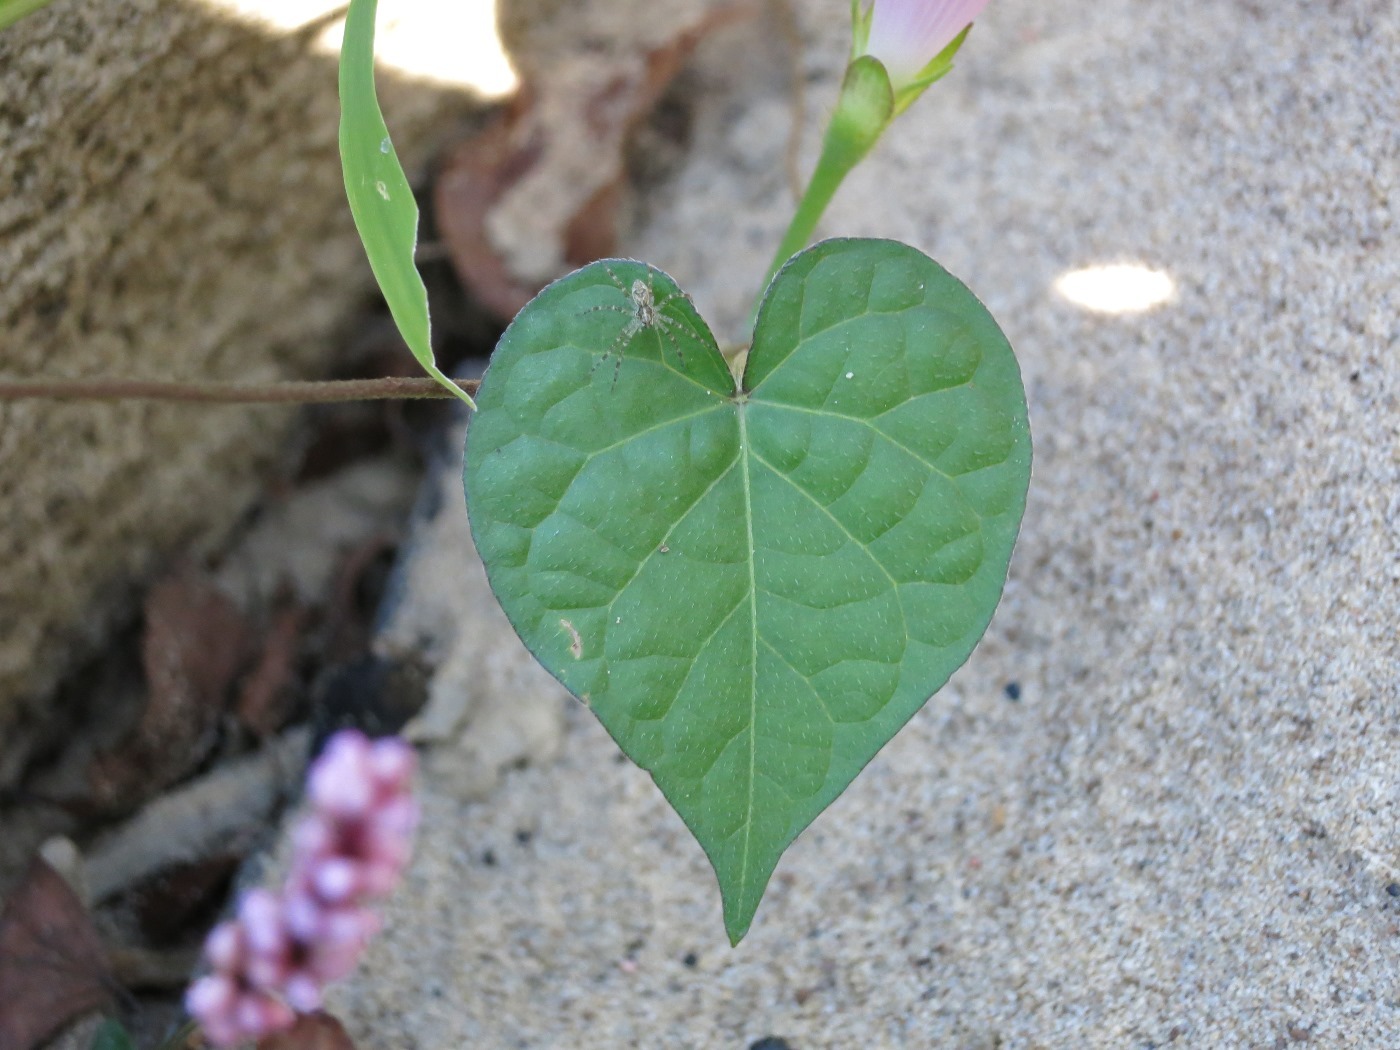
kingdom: Plantae
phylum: Tracheophyta
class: Magnoliopsida
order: Solanales
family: Convolvulaceae
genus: Ipomoea
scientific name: Ipomoea purpurea
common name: Common morning-glory
